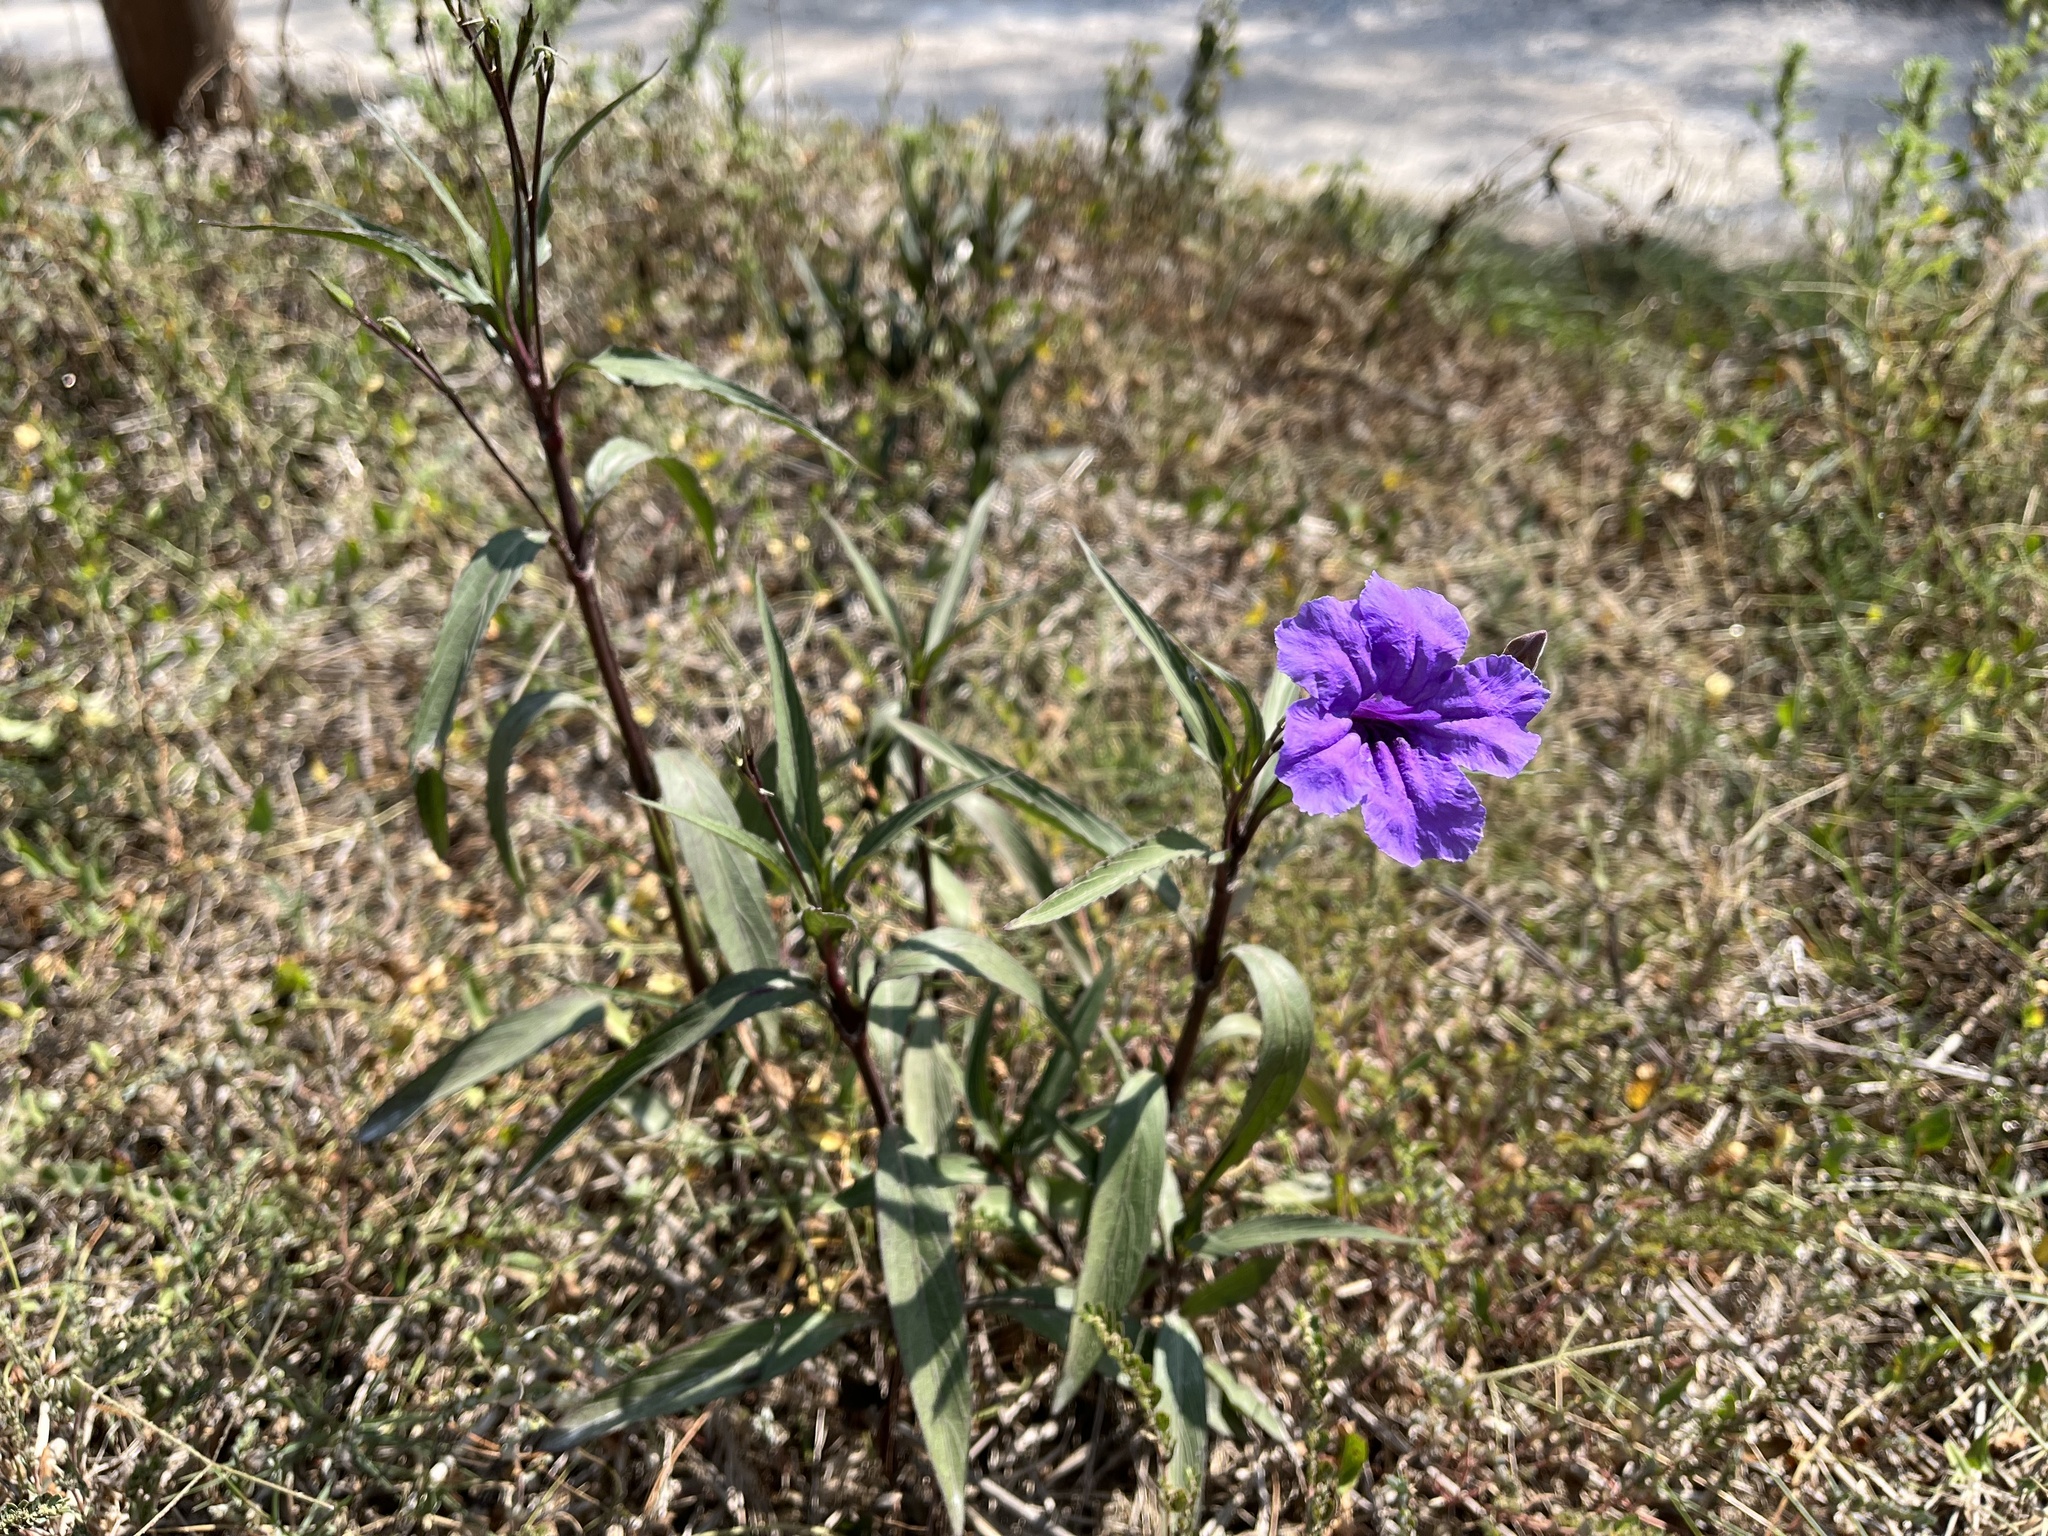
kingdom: Plantae
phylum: Tracheophyta
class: Magnoliopsida
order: Lamiales
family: Acanthaceae
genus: Ruellia
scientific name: Ruellia simplex
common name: Softseed wild petunia
